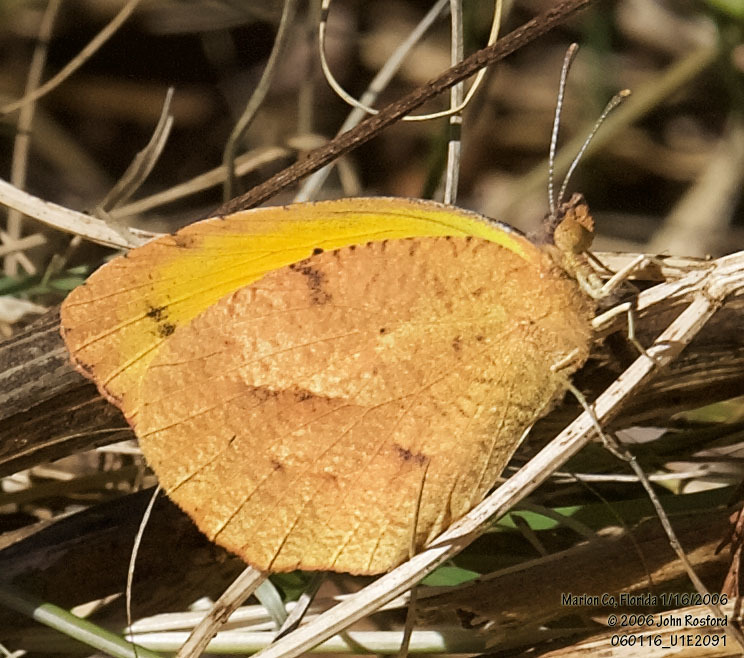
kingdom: Animalia
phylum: Arthropoda
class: Insecta
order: Lepidoptera
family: Pieridae
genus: Abaeis
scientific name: Abaeis nicippe
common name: Sleepy orange
